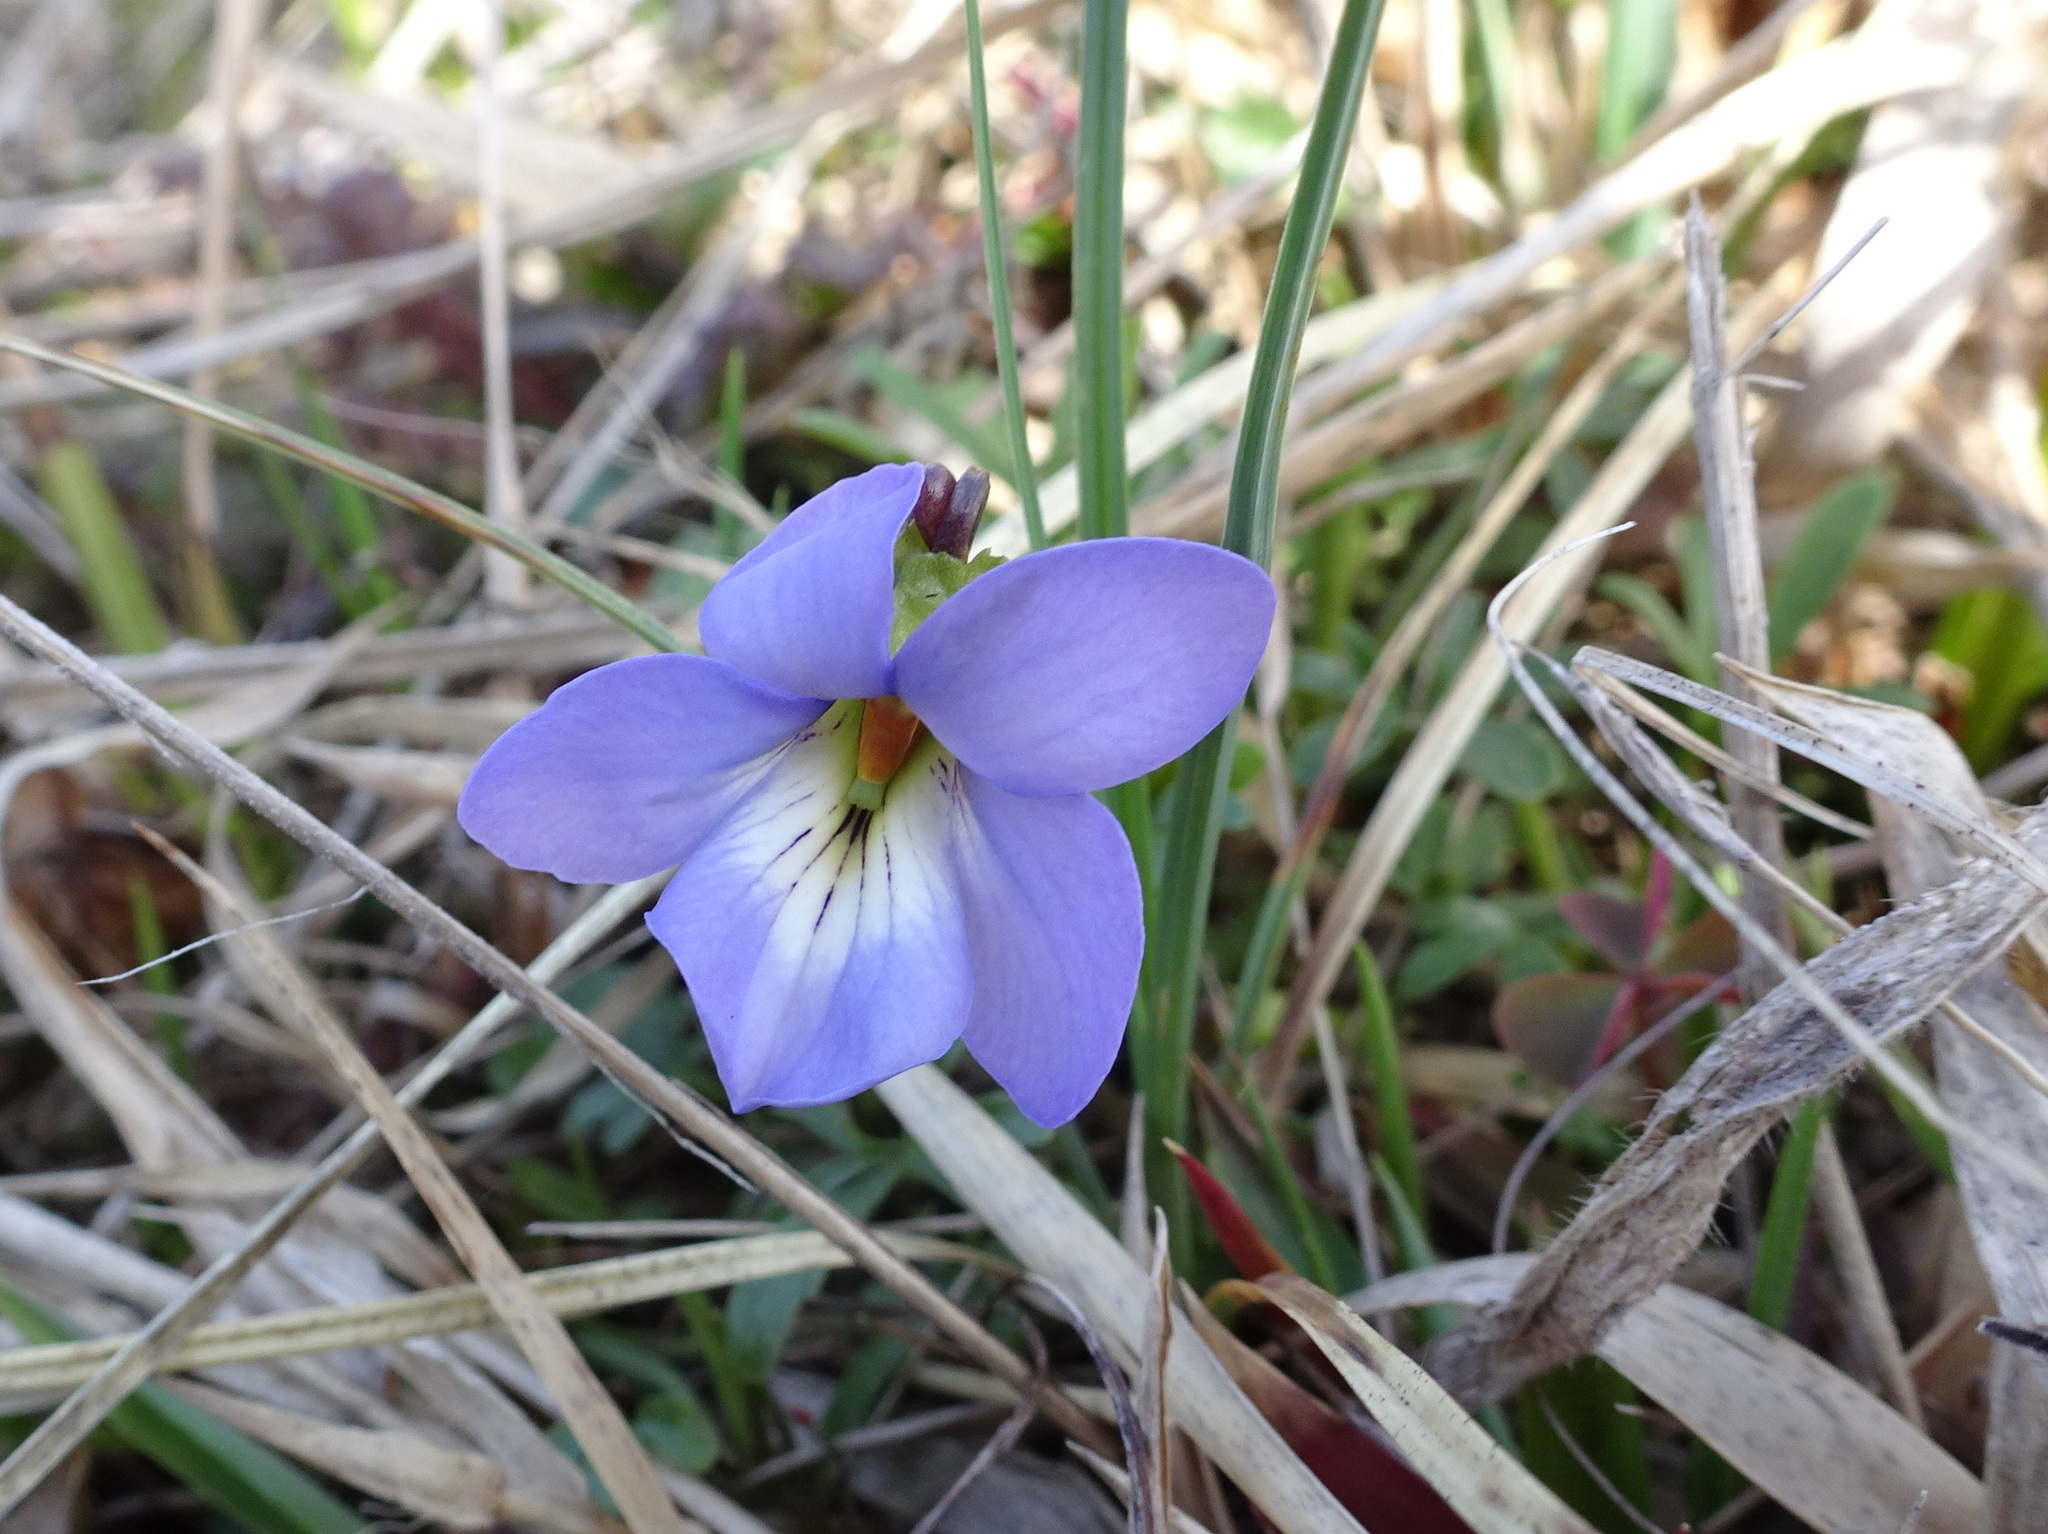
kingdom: Plantae
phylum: Tracheophyta
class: Magnoliopsida
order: Malpighiales
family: Violaceae
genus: Viola
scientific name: Viola pedata
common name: Pansy violet
